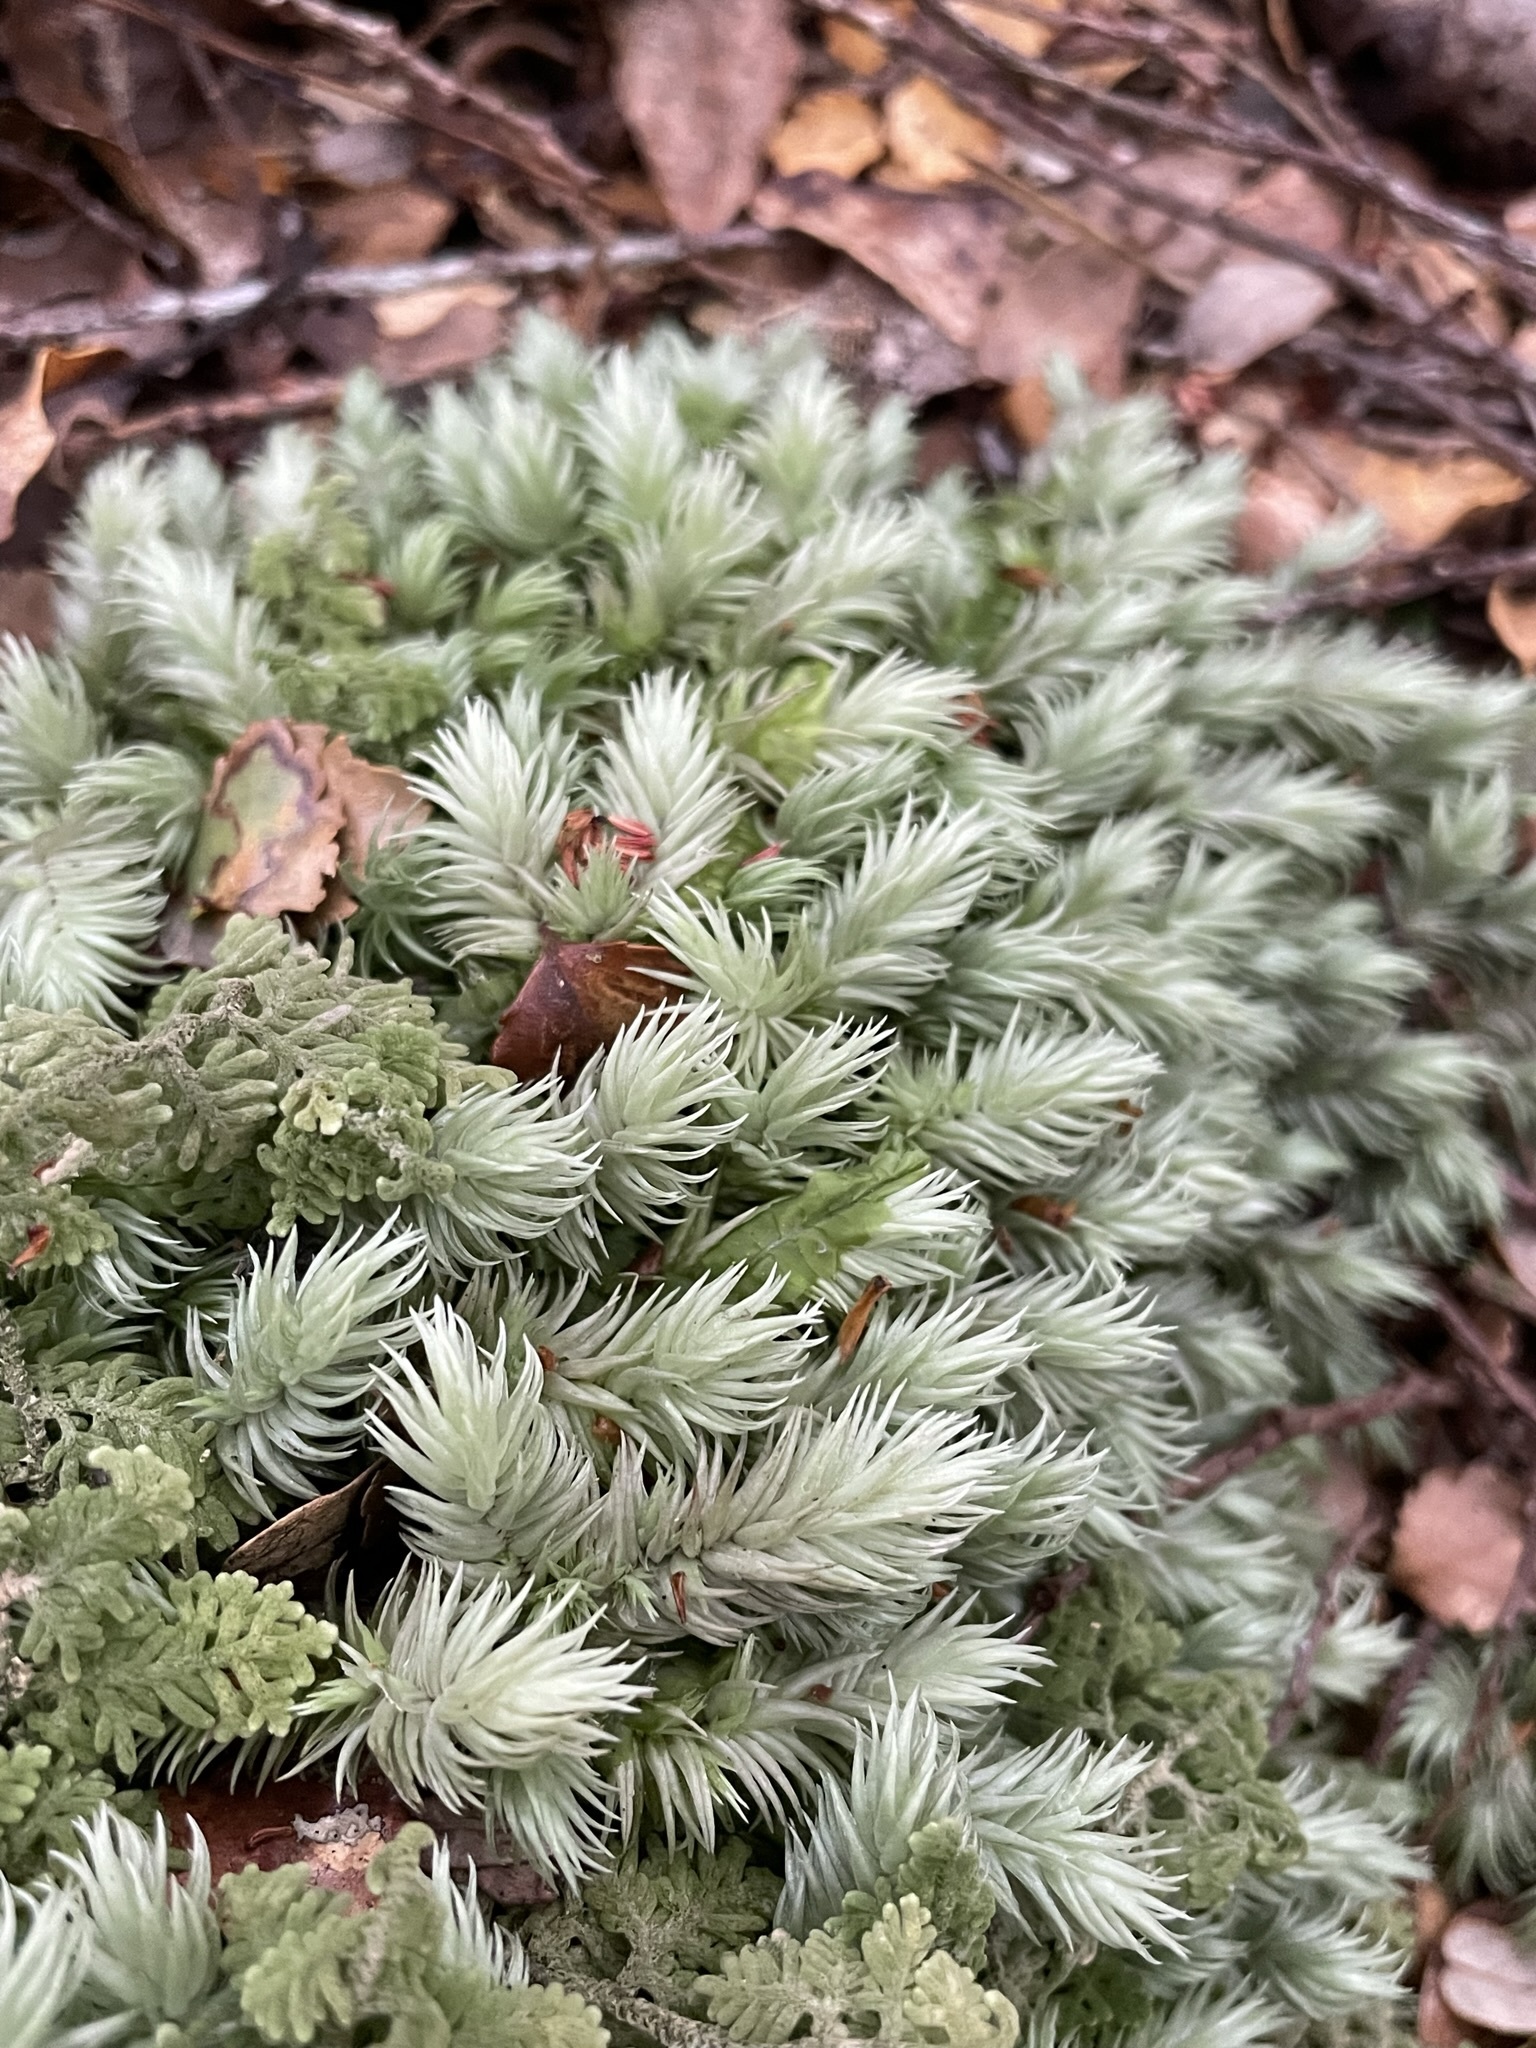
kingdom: Plantae
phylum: Bryophyta
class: Bryopsida
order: Dicranales
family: Leucobryaceae
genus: Leucobryum
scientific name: Leucobryum javense
